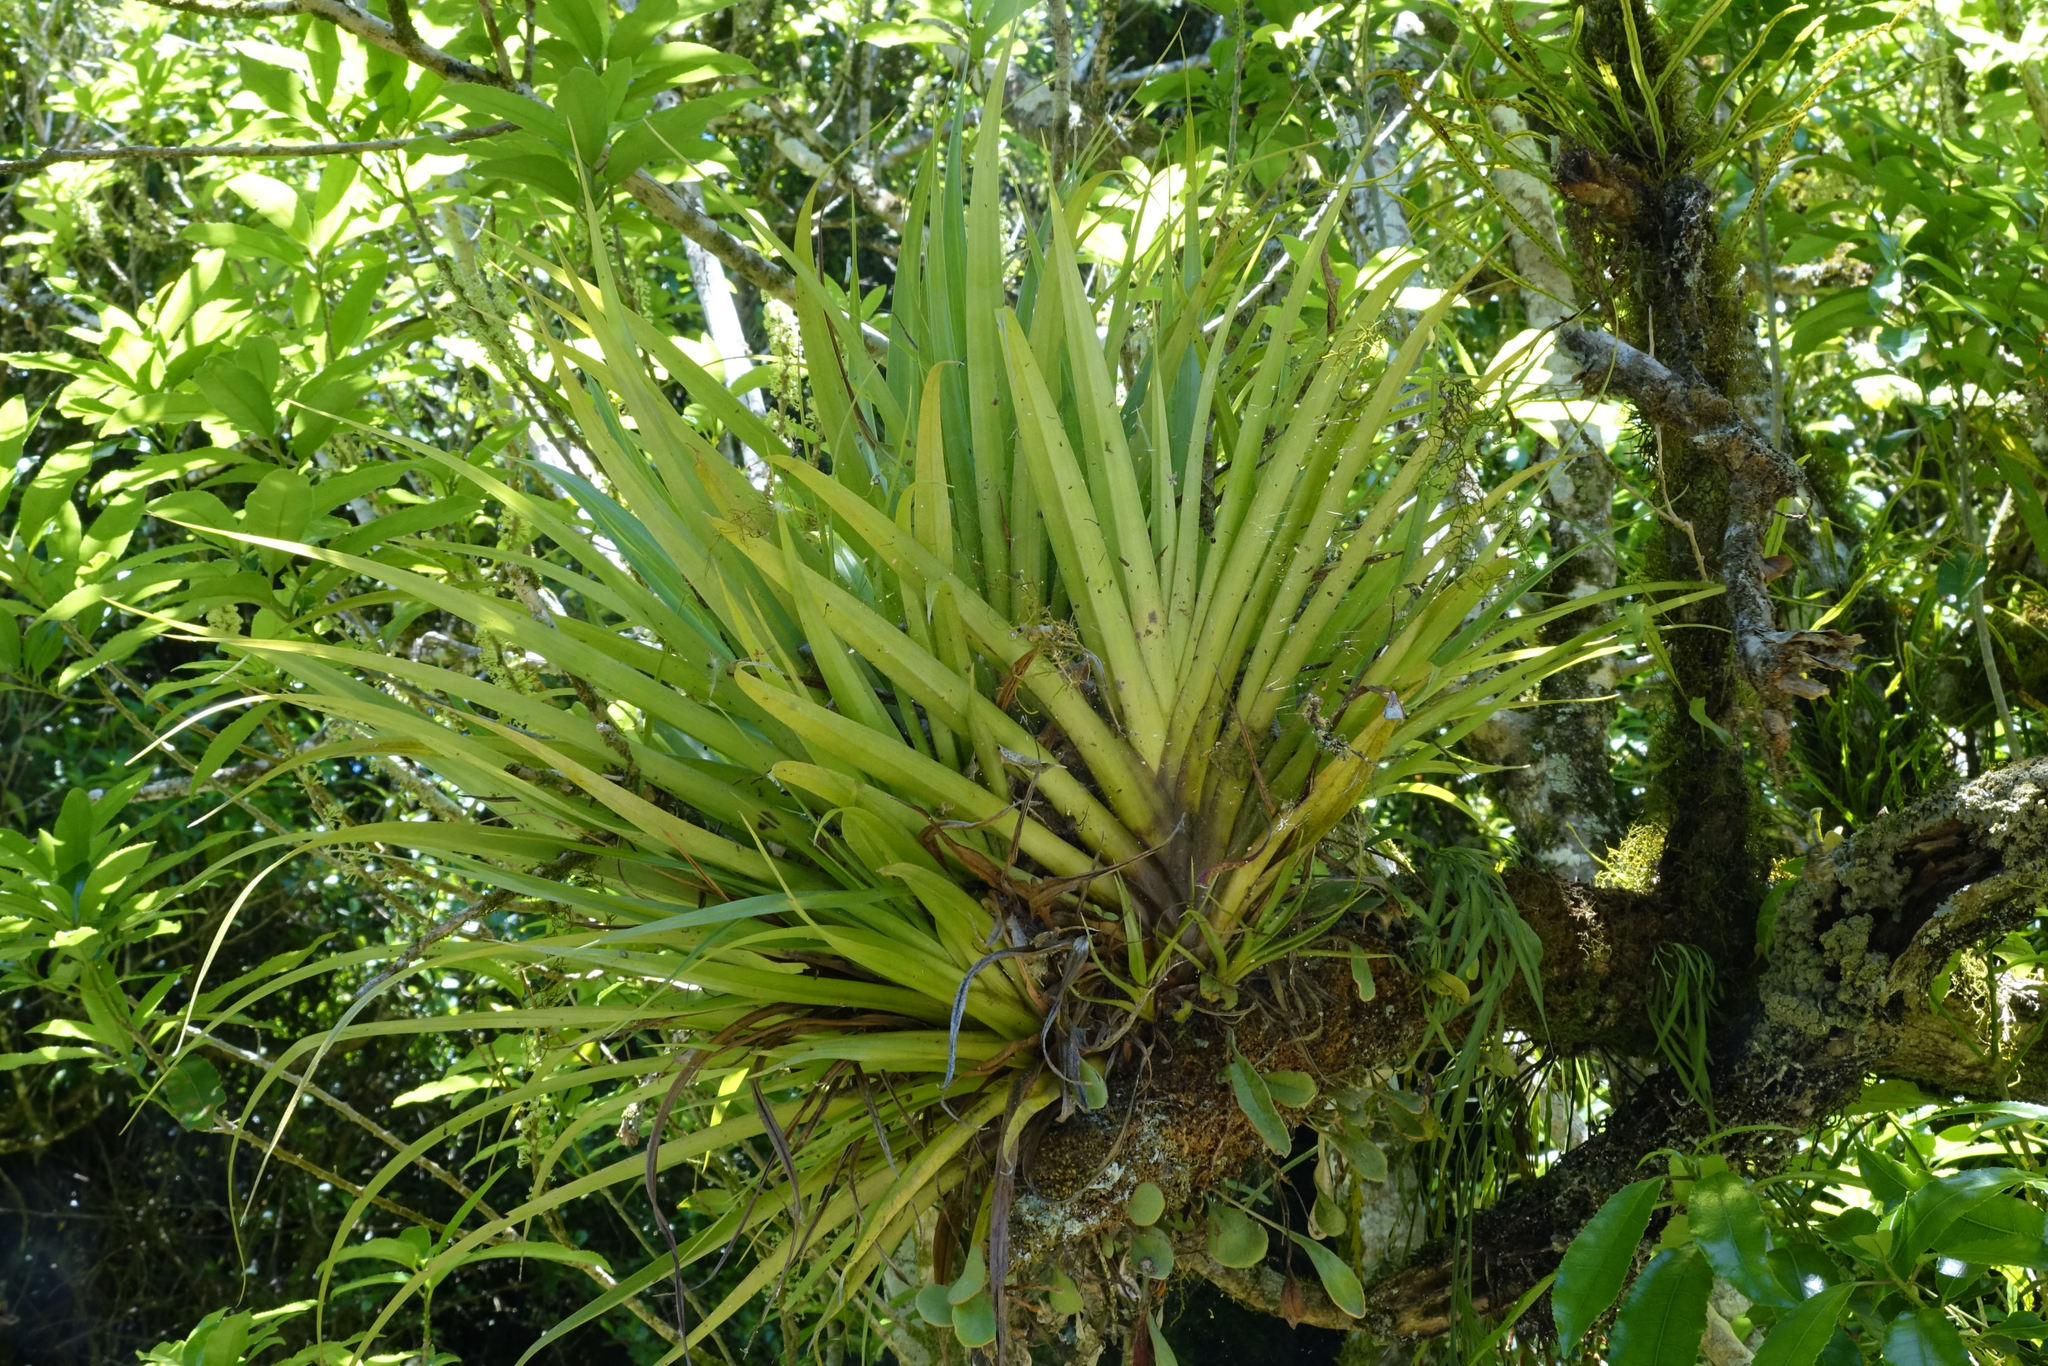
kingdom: Plantae
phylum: Tracheophyta
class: Liliopsida
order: Asparagales
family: Asteliaceae
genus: Astelia
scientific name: Astelia microsperma
